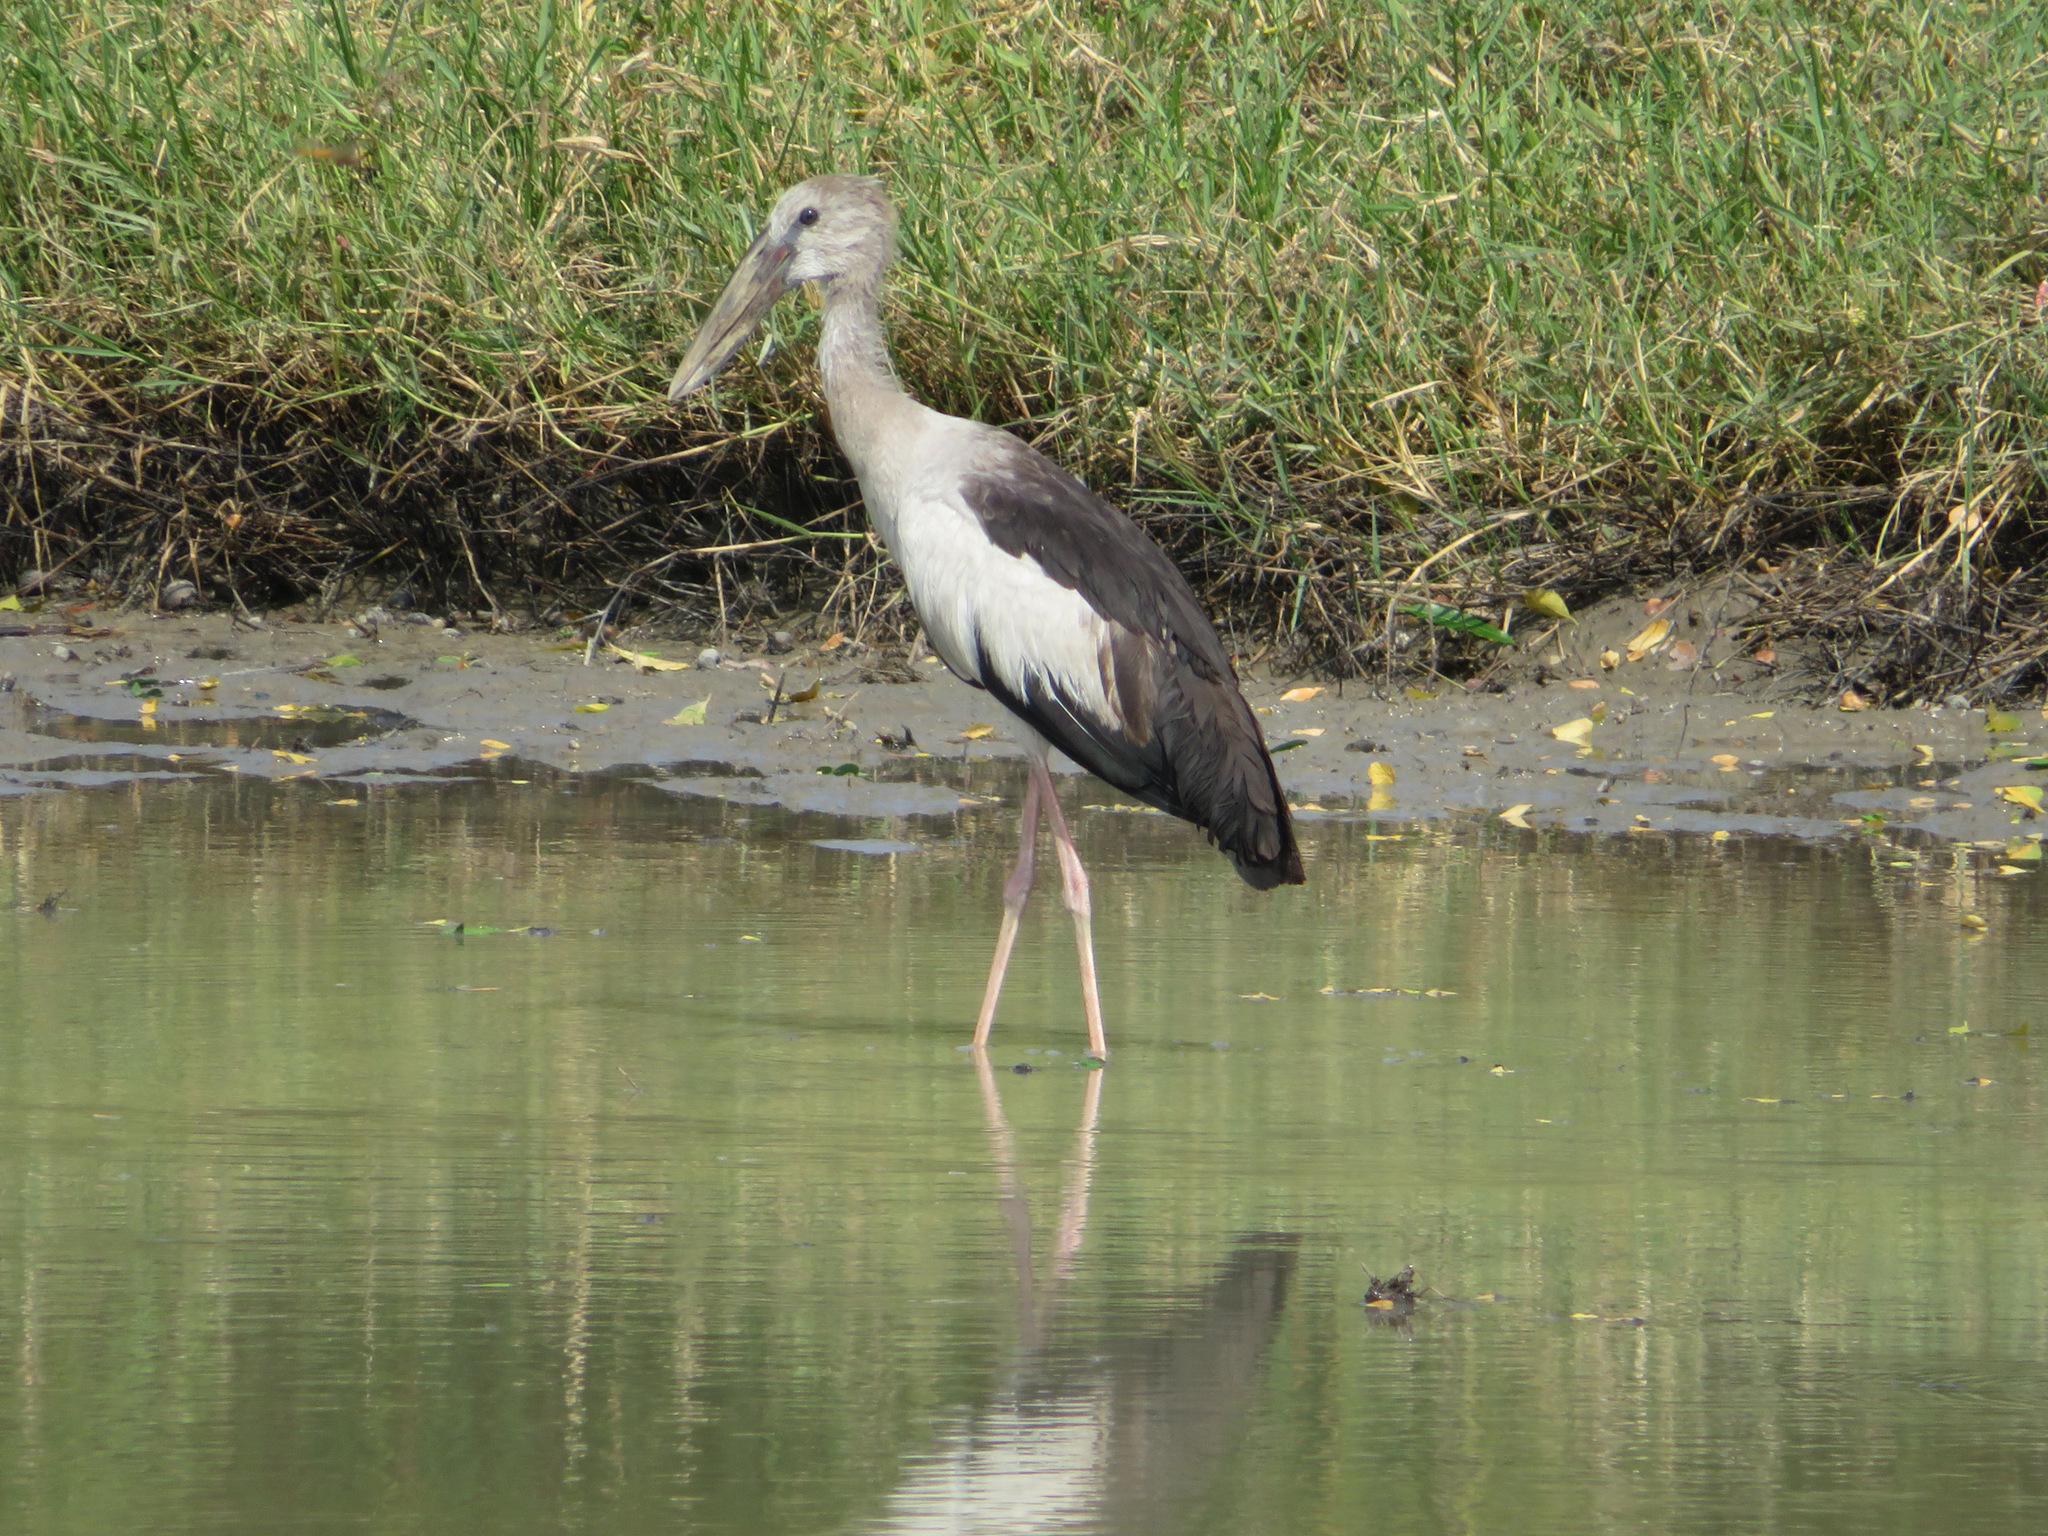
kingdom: Animalia
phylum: Chordata
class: Aves
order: Ciconiiformes
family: Ciconiidae
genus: Anastomus
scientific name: Anastomus oscitans
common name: Asian openbill
